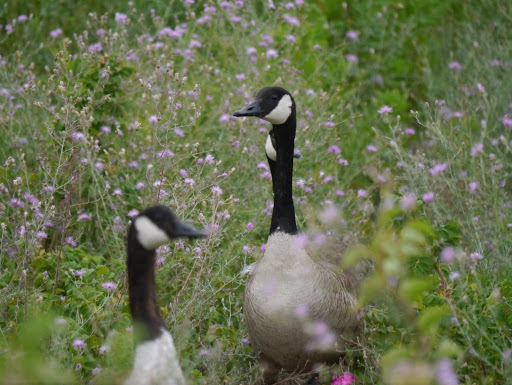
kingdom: Animalia
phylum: Chordata
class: Aves
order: Anseriformes
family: Anatidae
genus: Branta
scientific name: Branta canadensis
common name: Canada goose
